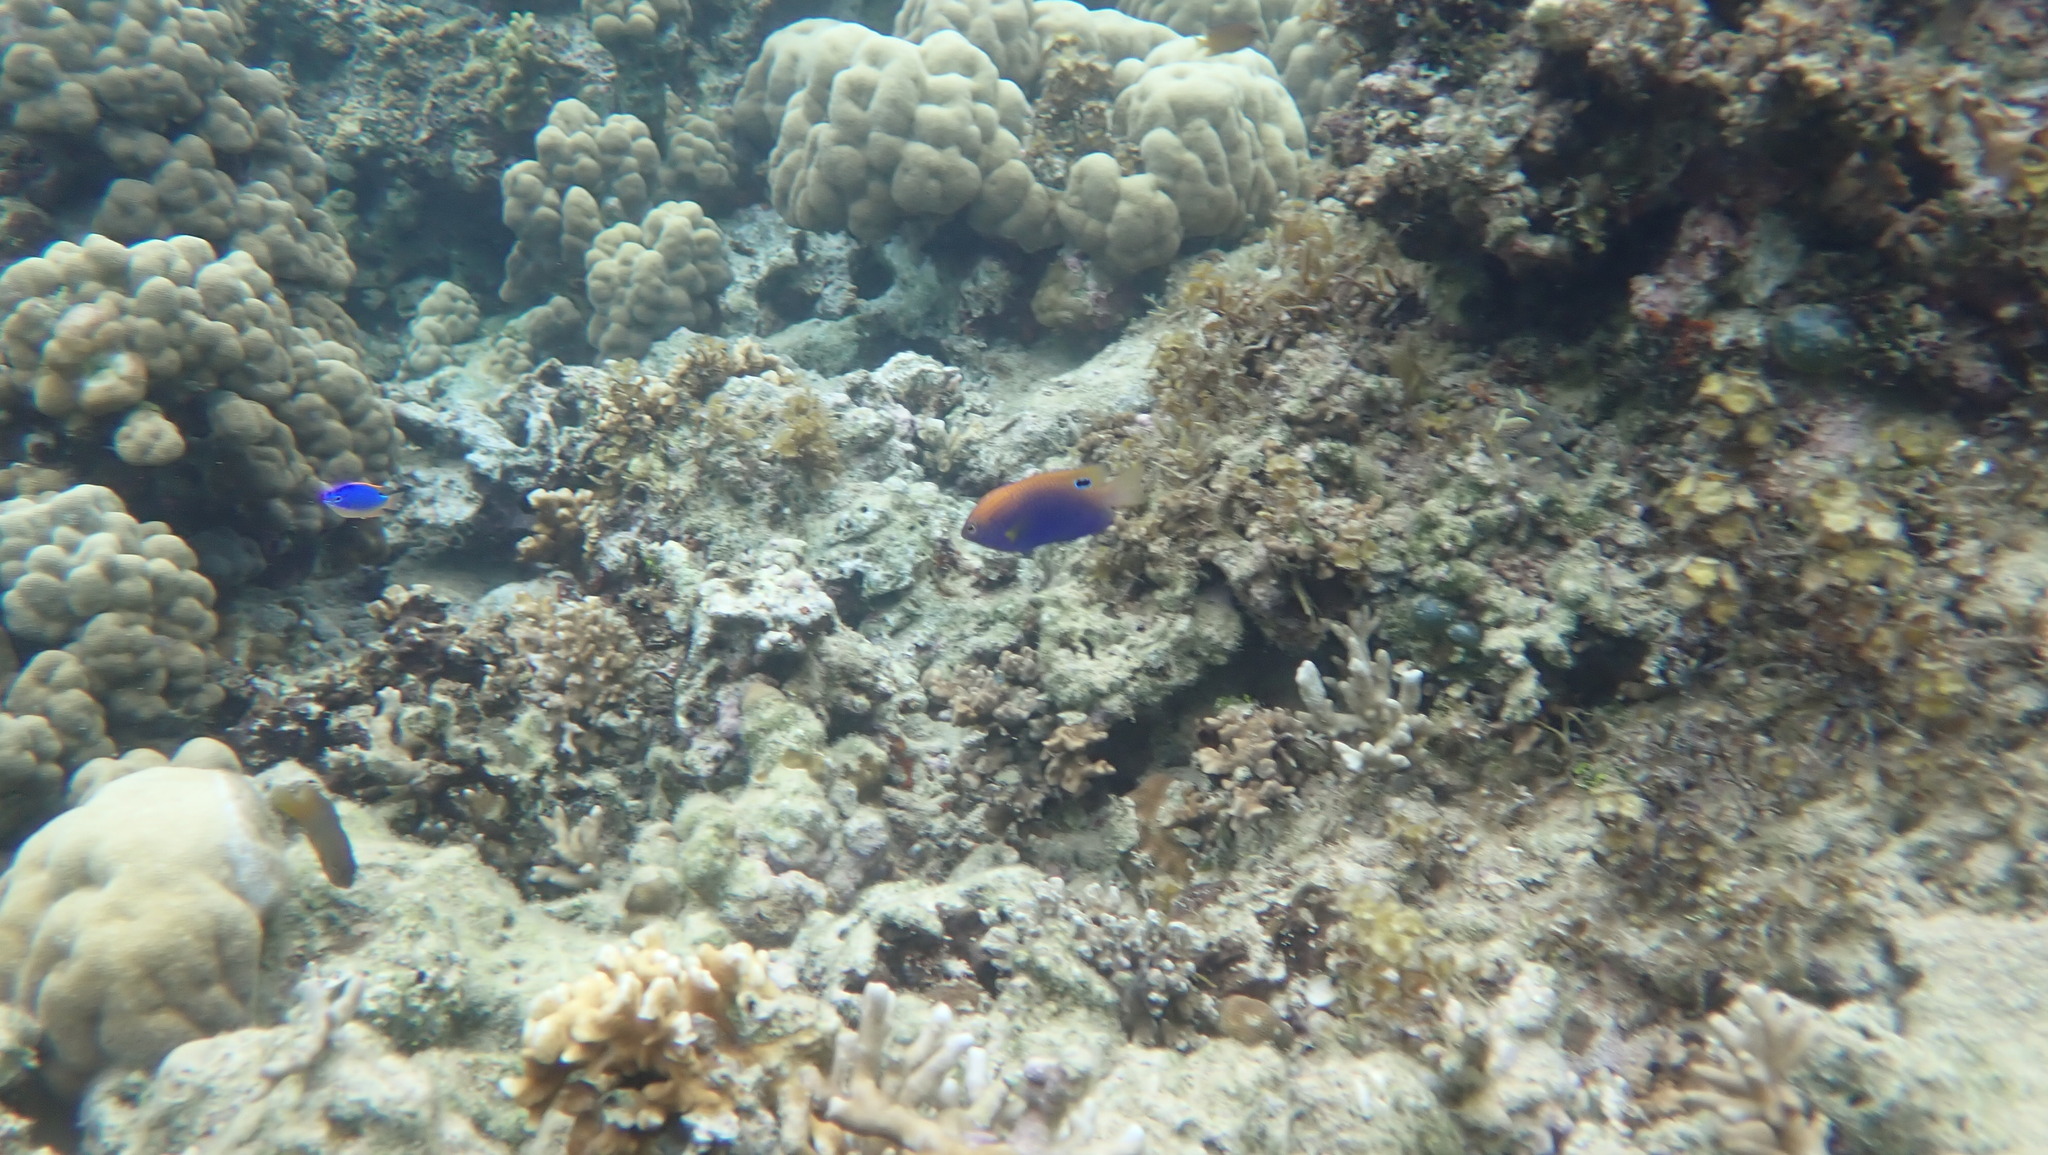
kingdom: Animalia
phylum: Chordata
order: Perciformes
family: Pomacentridae
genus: Pomacentrus
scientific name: Pomacentrus vaiuli
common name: Princess damsel
